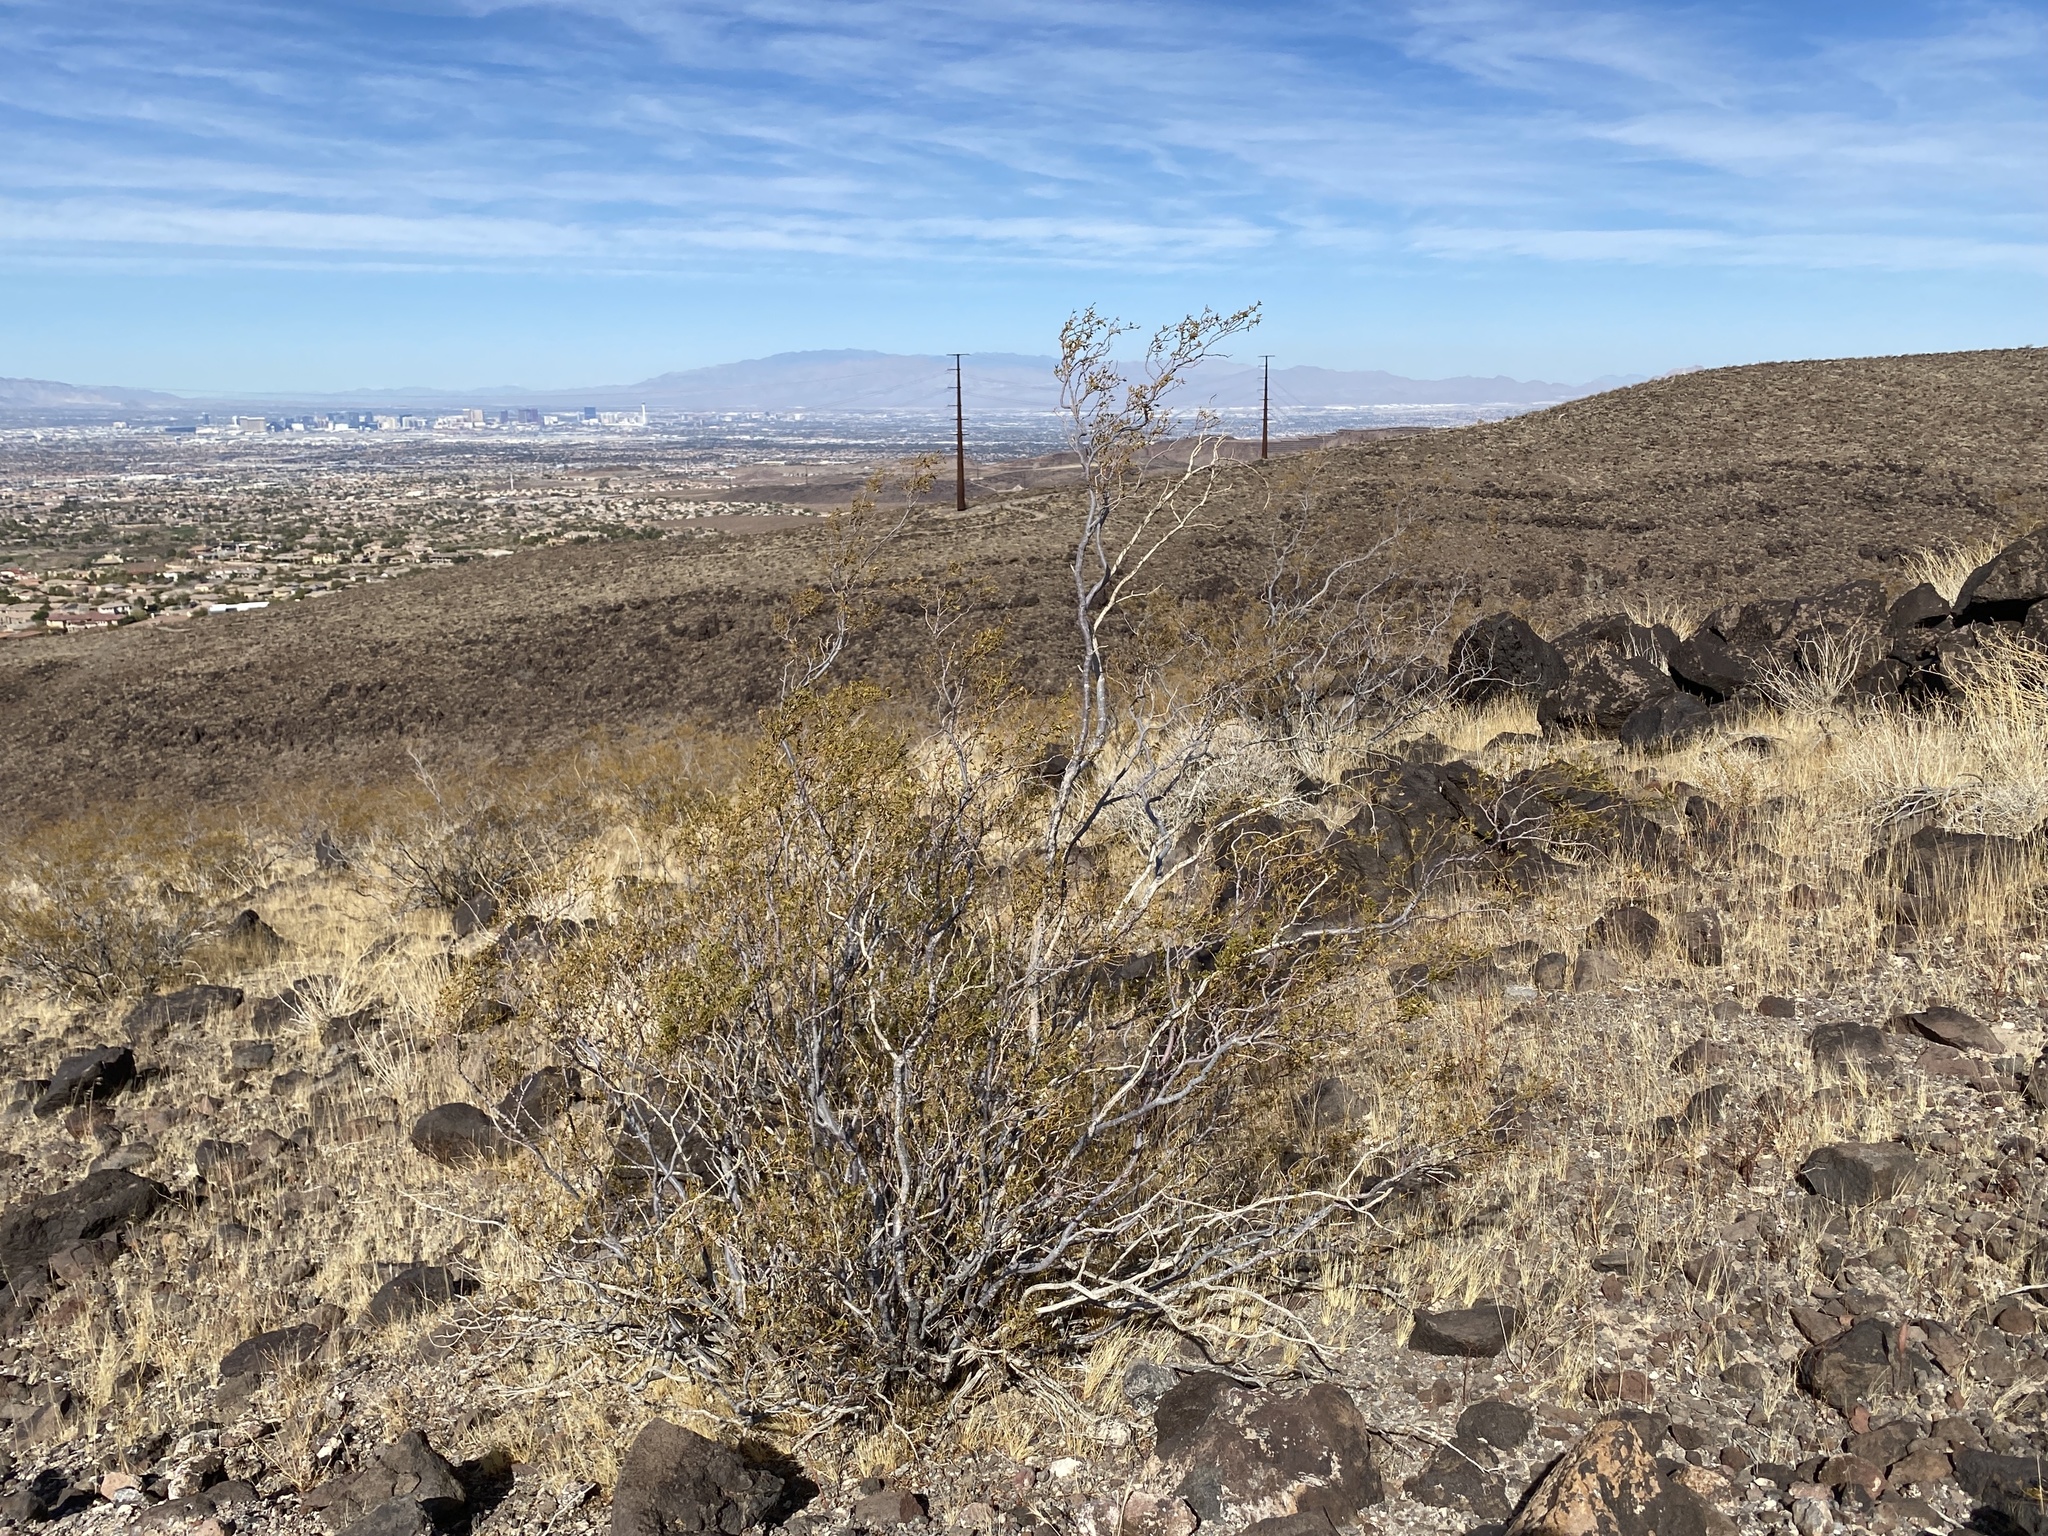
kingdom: Plantae
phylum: Tracheophyta
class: Magnoliopsida
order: Zygophyllales
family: Zygophyllaceae
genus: Larrea
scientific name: Larrea tridentata
